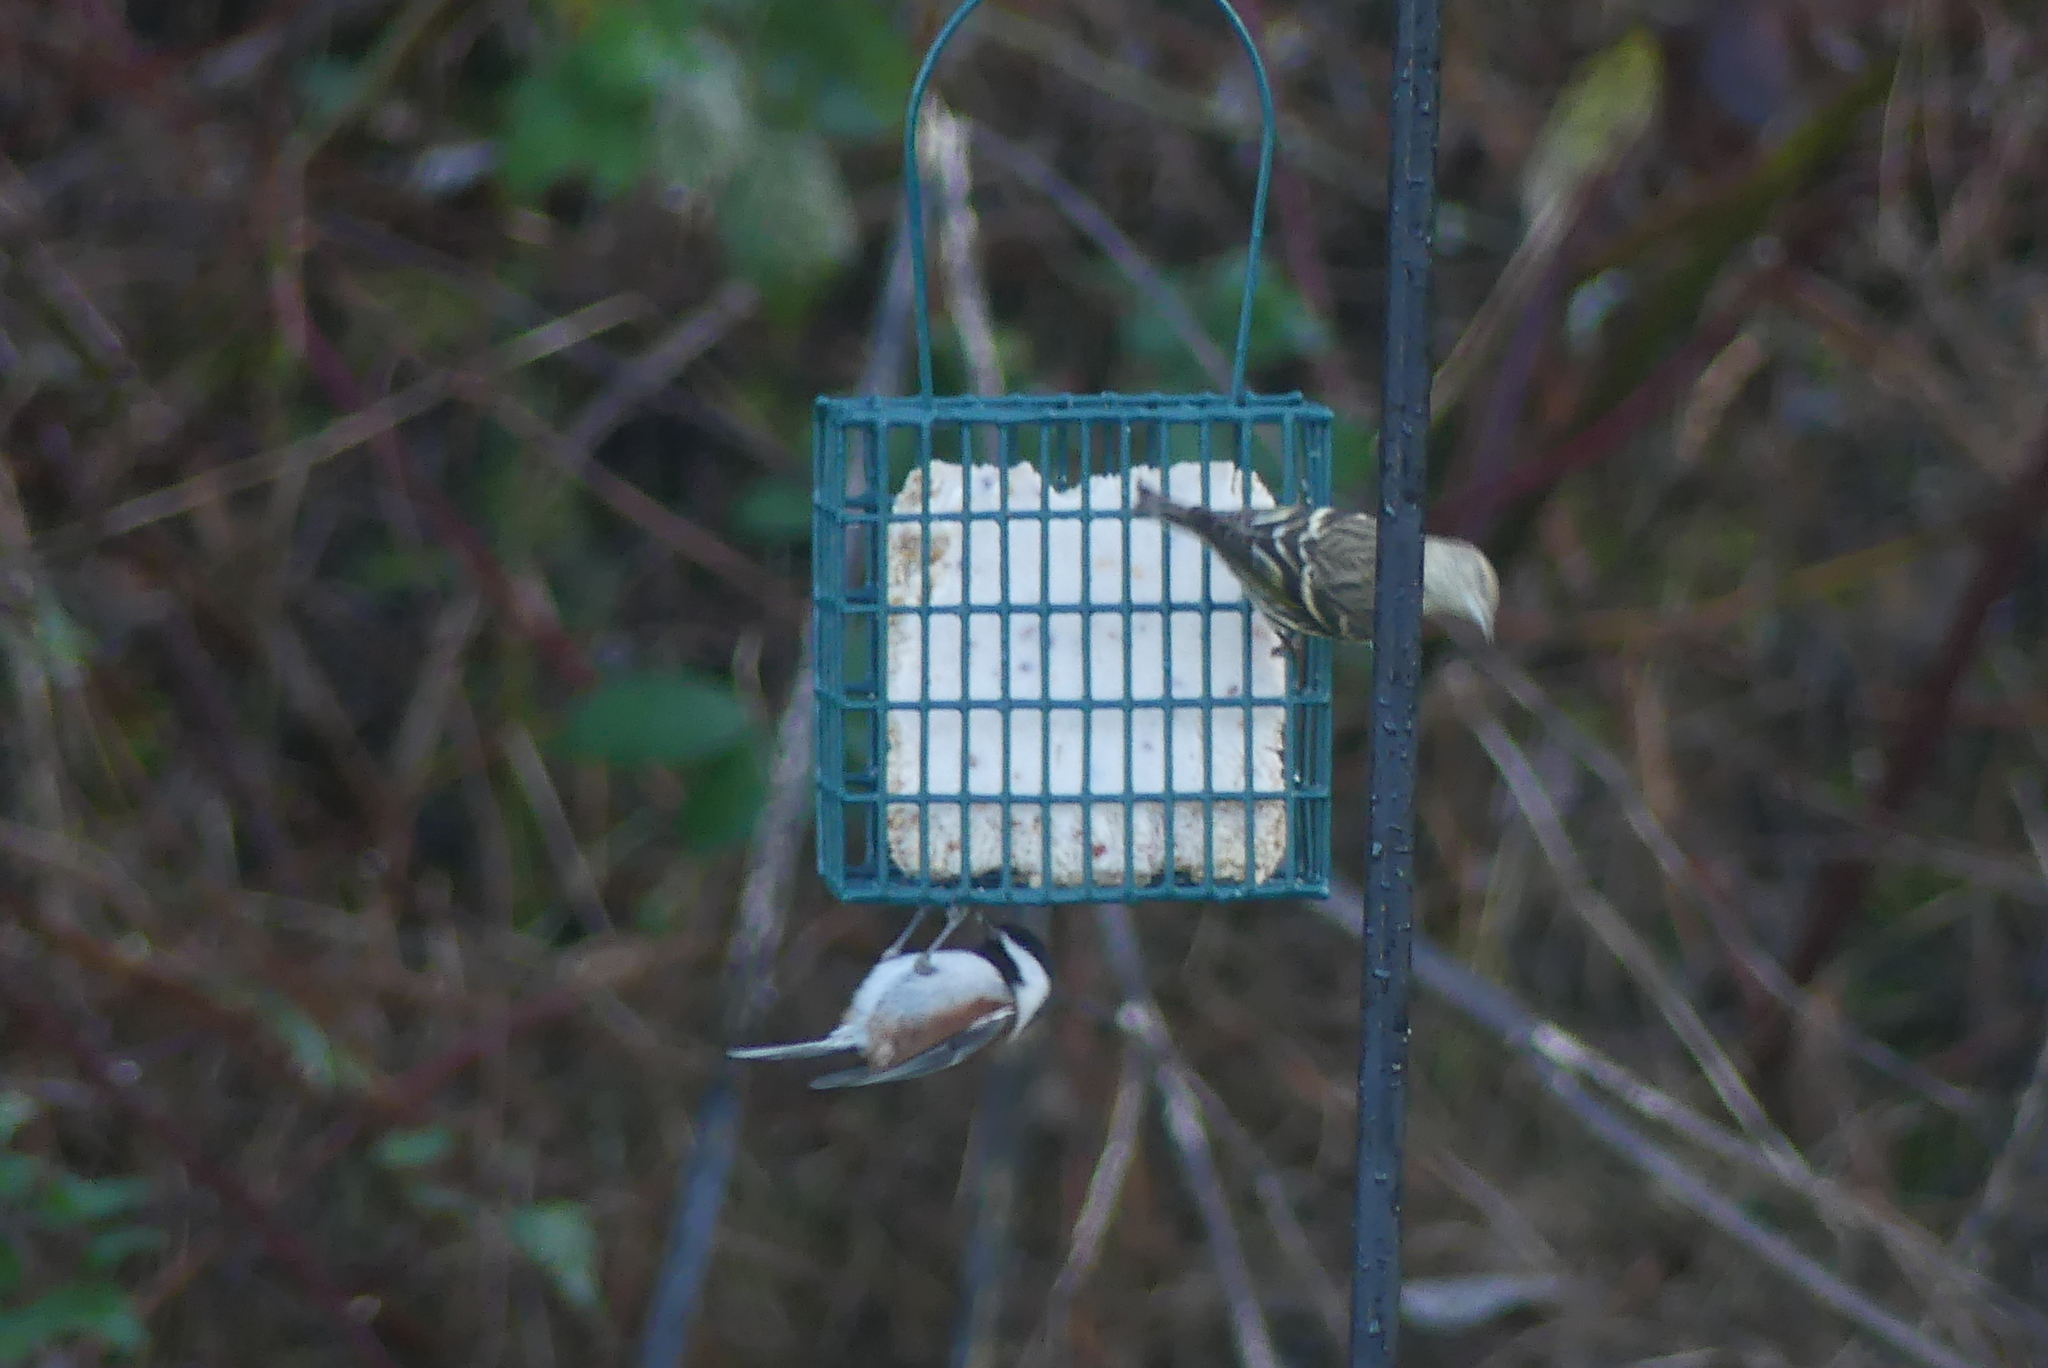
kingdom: Animalia
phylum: Chordata
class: Aves
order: Passeriformes
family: Fringillidae
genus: Spinus
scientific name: Spinus pinus
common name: Pine siskin
